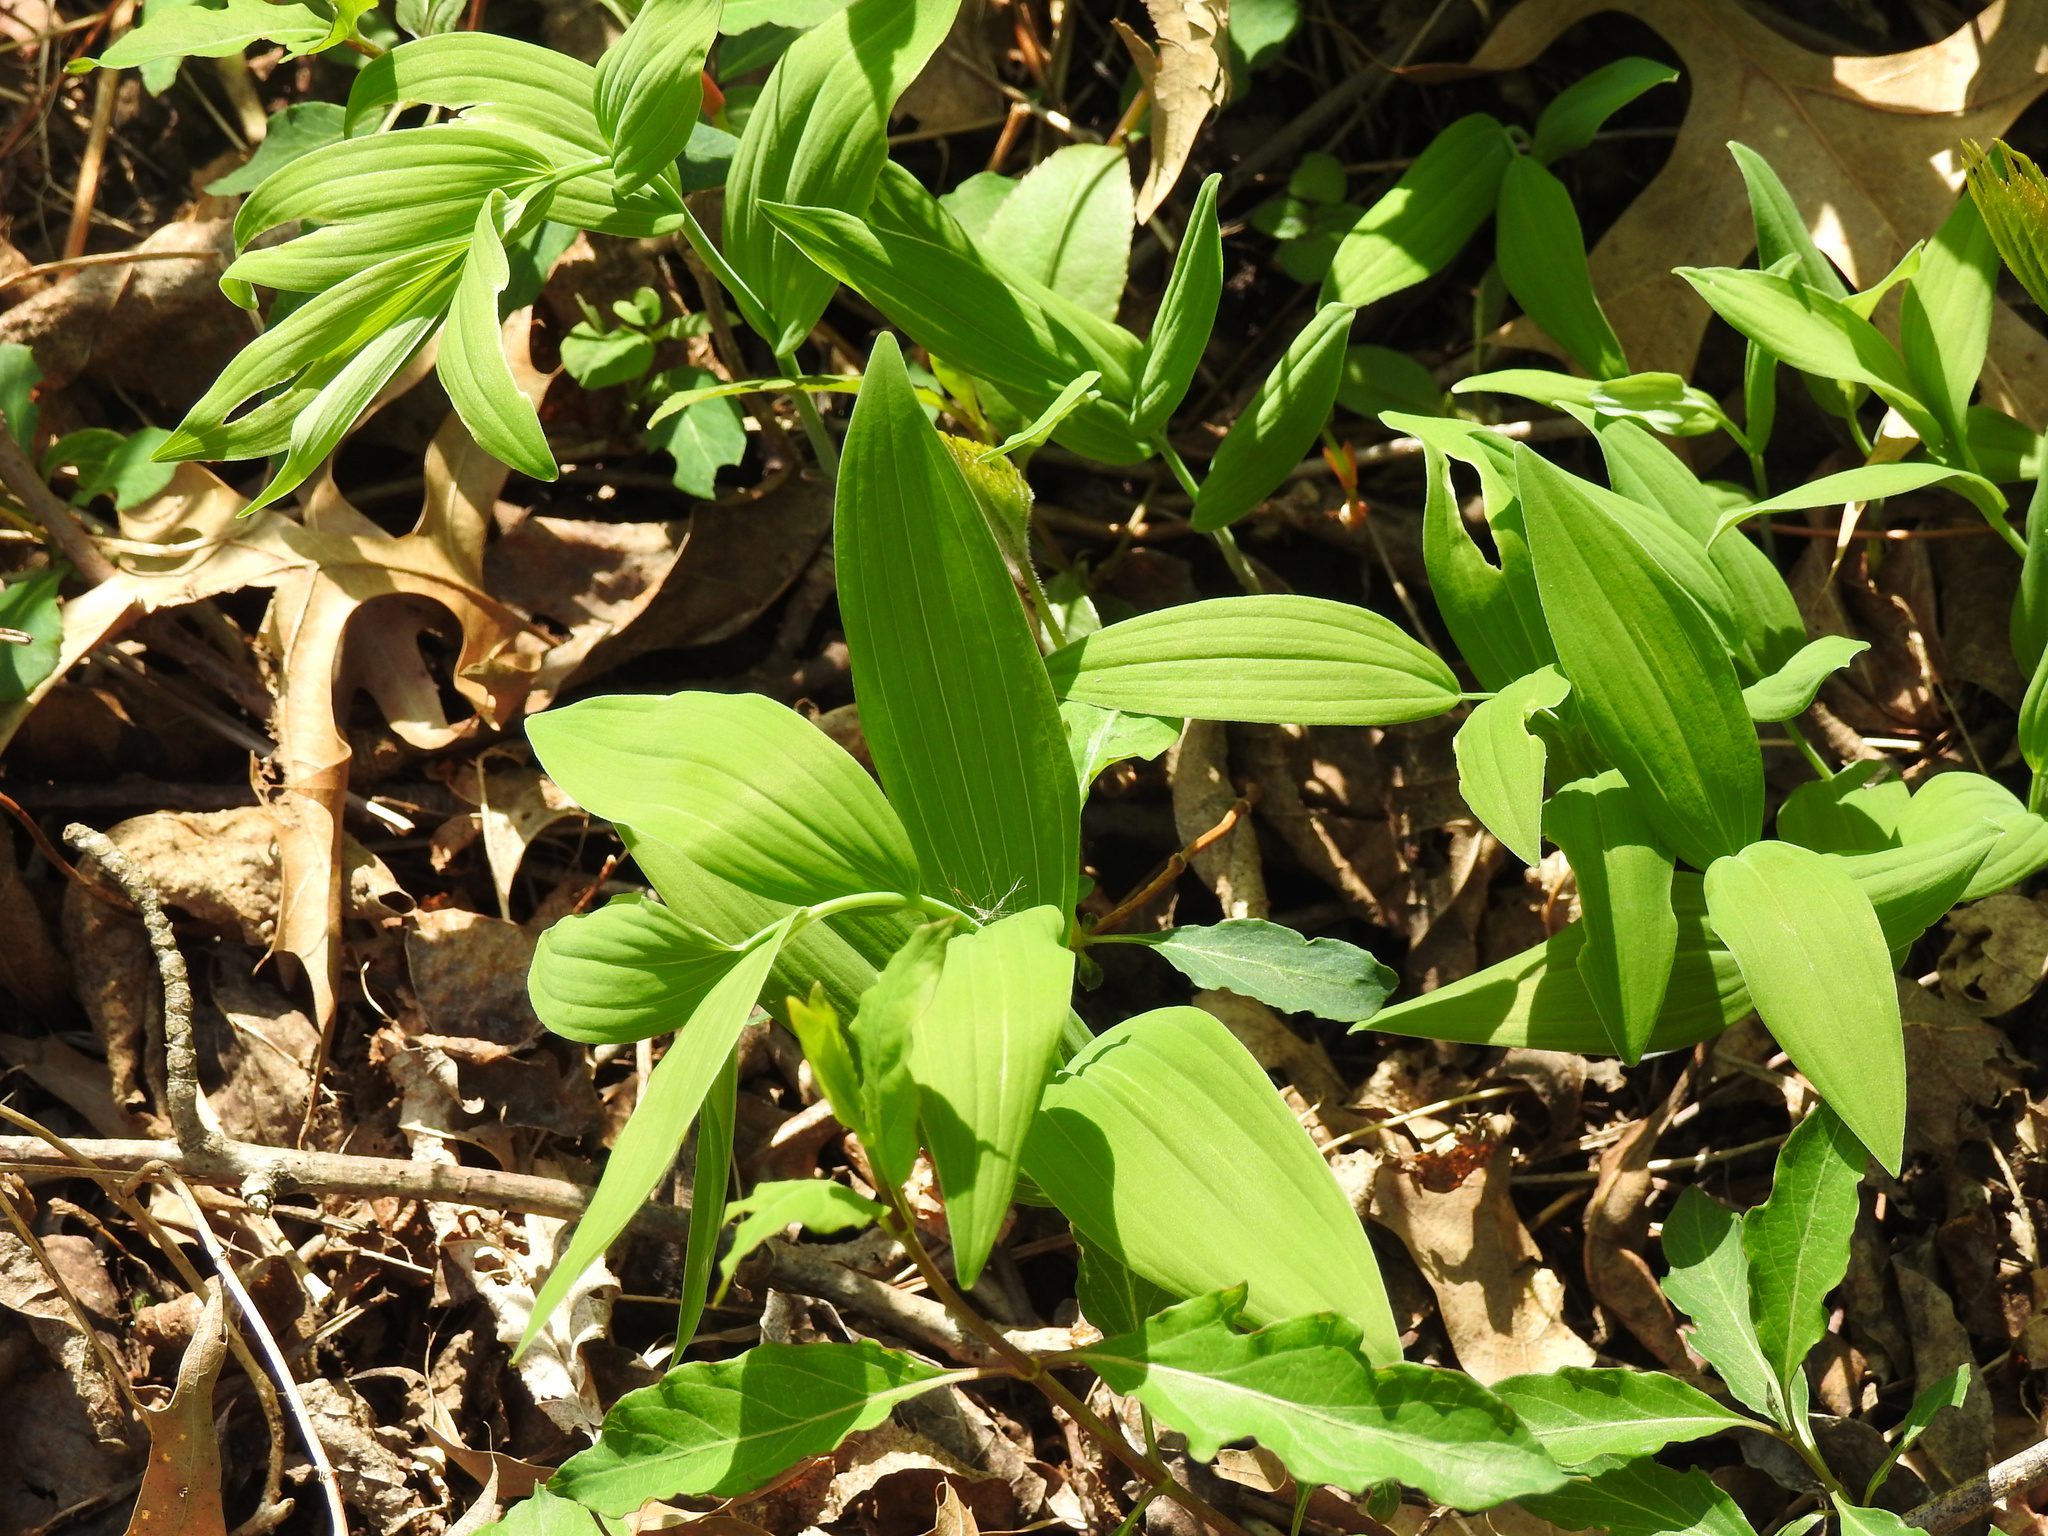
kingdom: Plantae
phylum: Tracheophyta
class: Liliopsida
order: Asparagales
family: Asparagaceae
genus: Polygonatum
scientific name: Polygonatum biflorum
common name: American solomon's-seal
